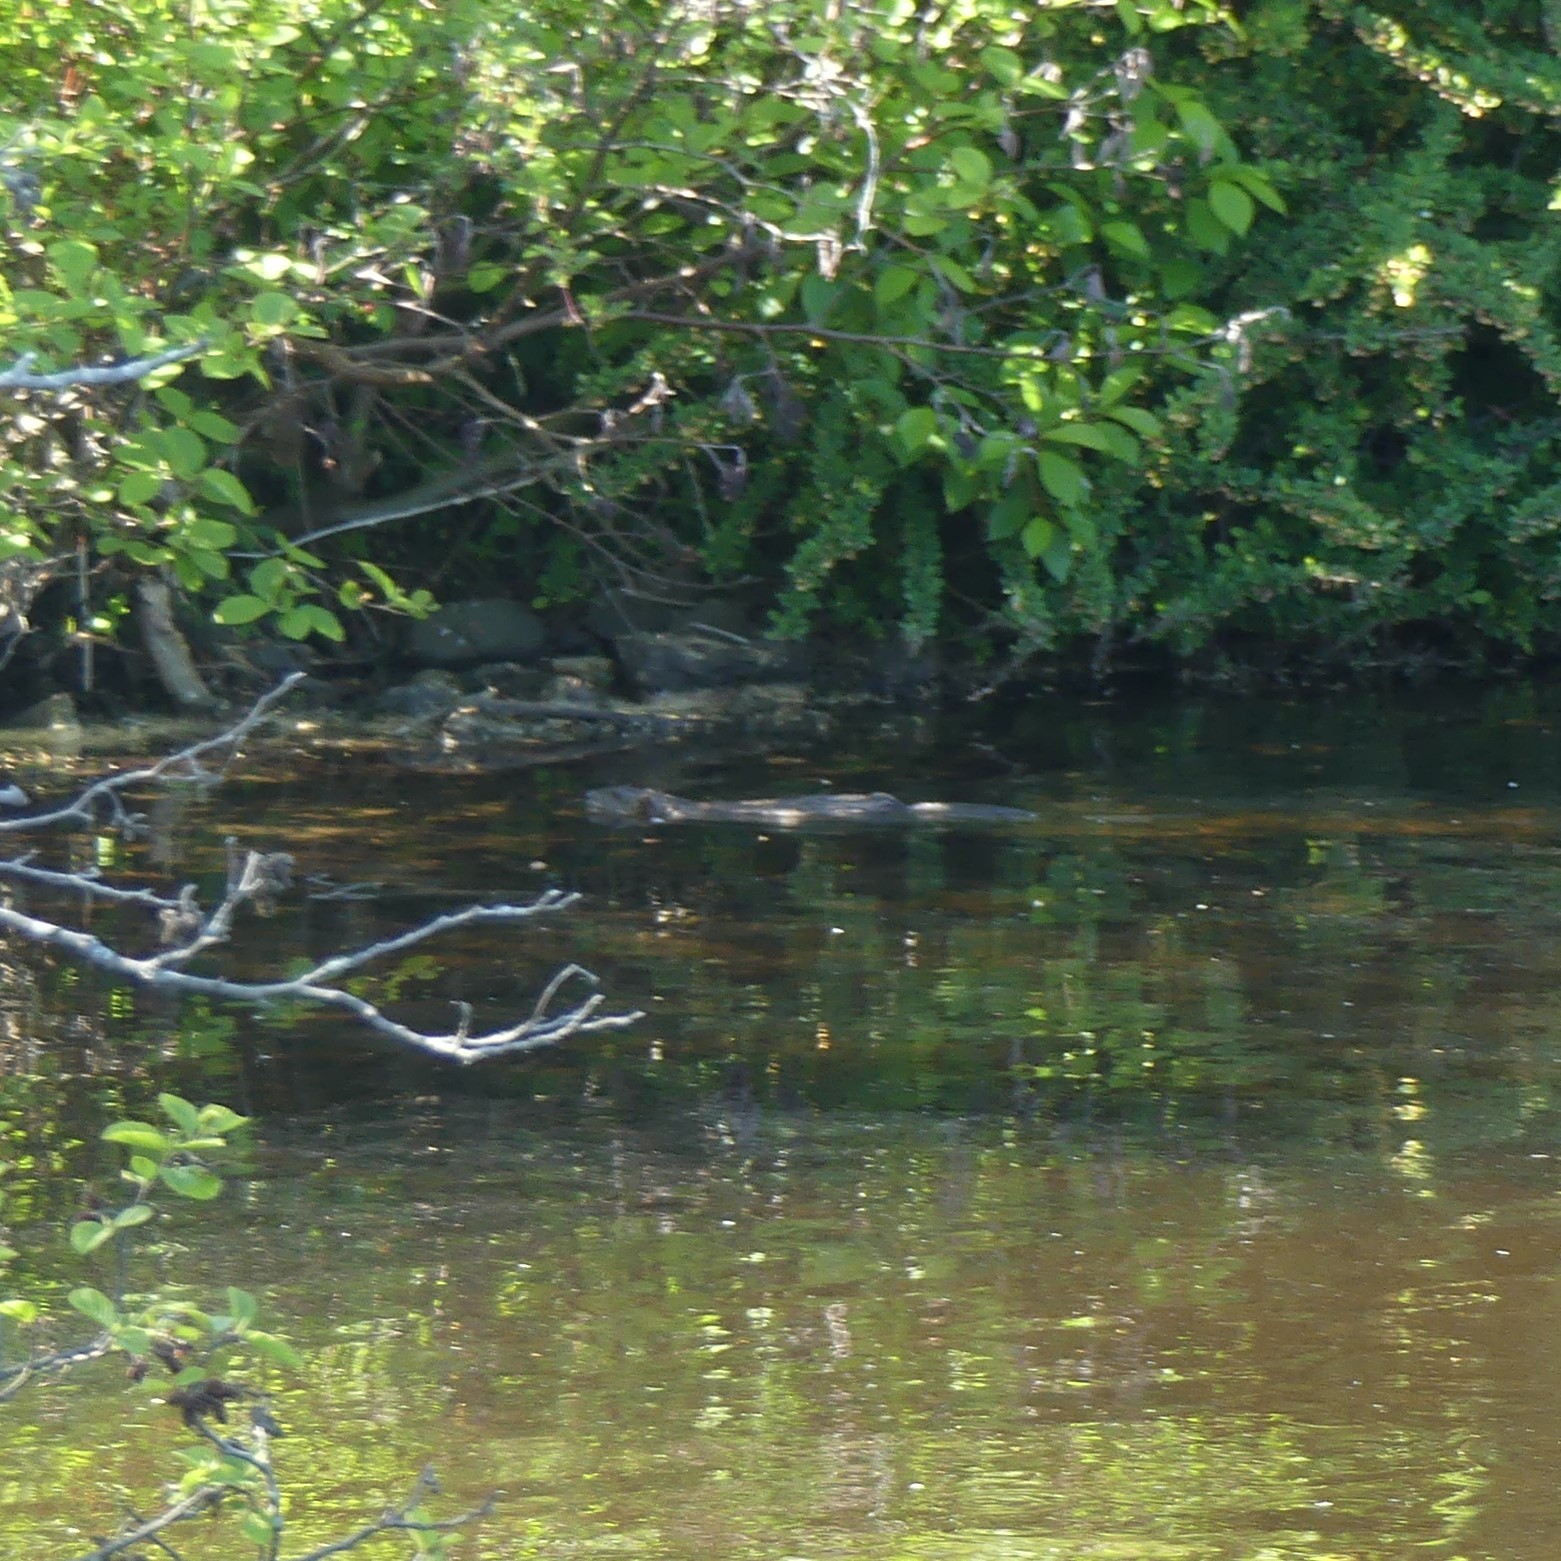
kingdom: Animalia
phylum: Chordata
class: Mammalia
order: Rodentia
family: Cricetidae
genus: Ondatra
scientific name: Ondatra zibethicus
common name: Muskrat
